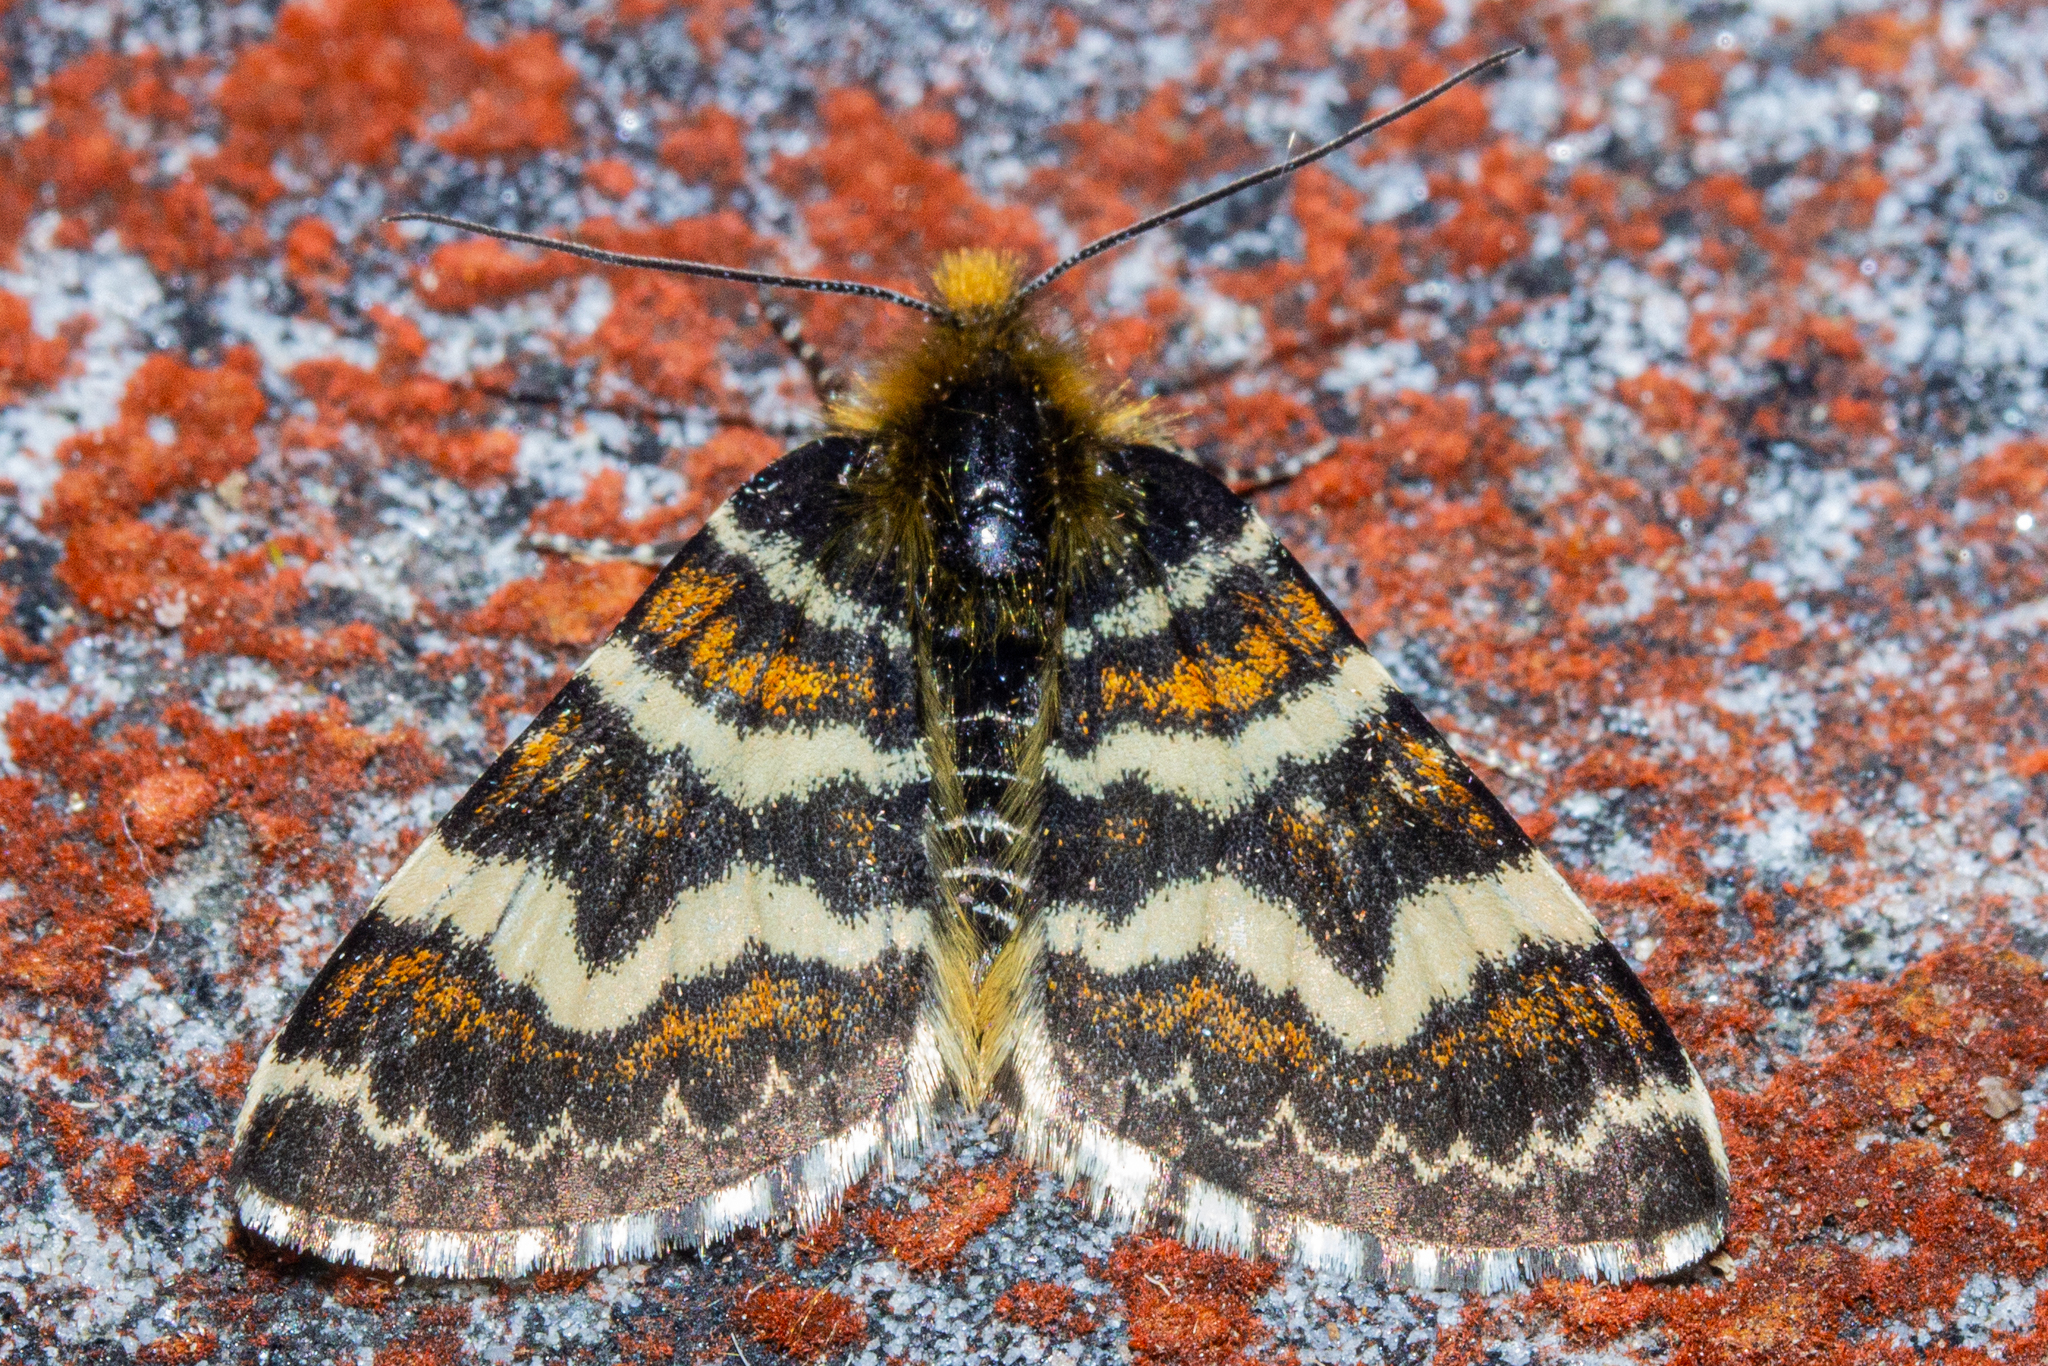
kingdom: Animalia
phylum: Arthropoda
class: Insecta
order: Lepidoptera
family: Geometridae
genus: Dasyuris
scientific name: Dasyuris callicrena
